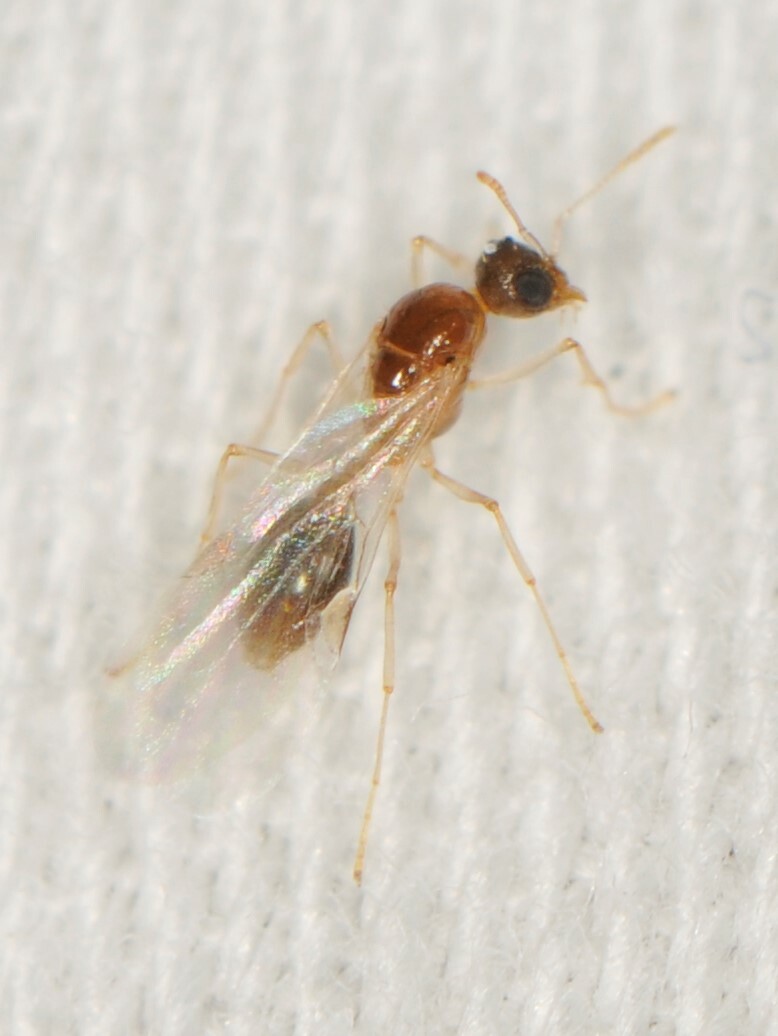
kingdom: Animalia
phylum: Arthropoda
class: Insecta
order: Hymenoptera
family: Formicidae
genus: Nylanderia
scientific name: Nylanderia
